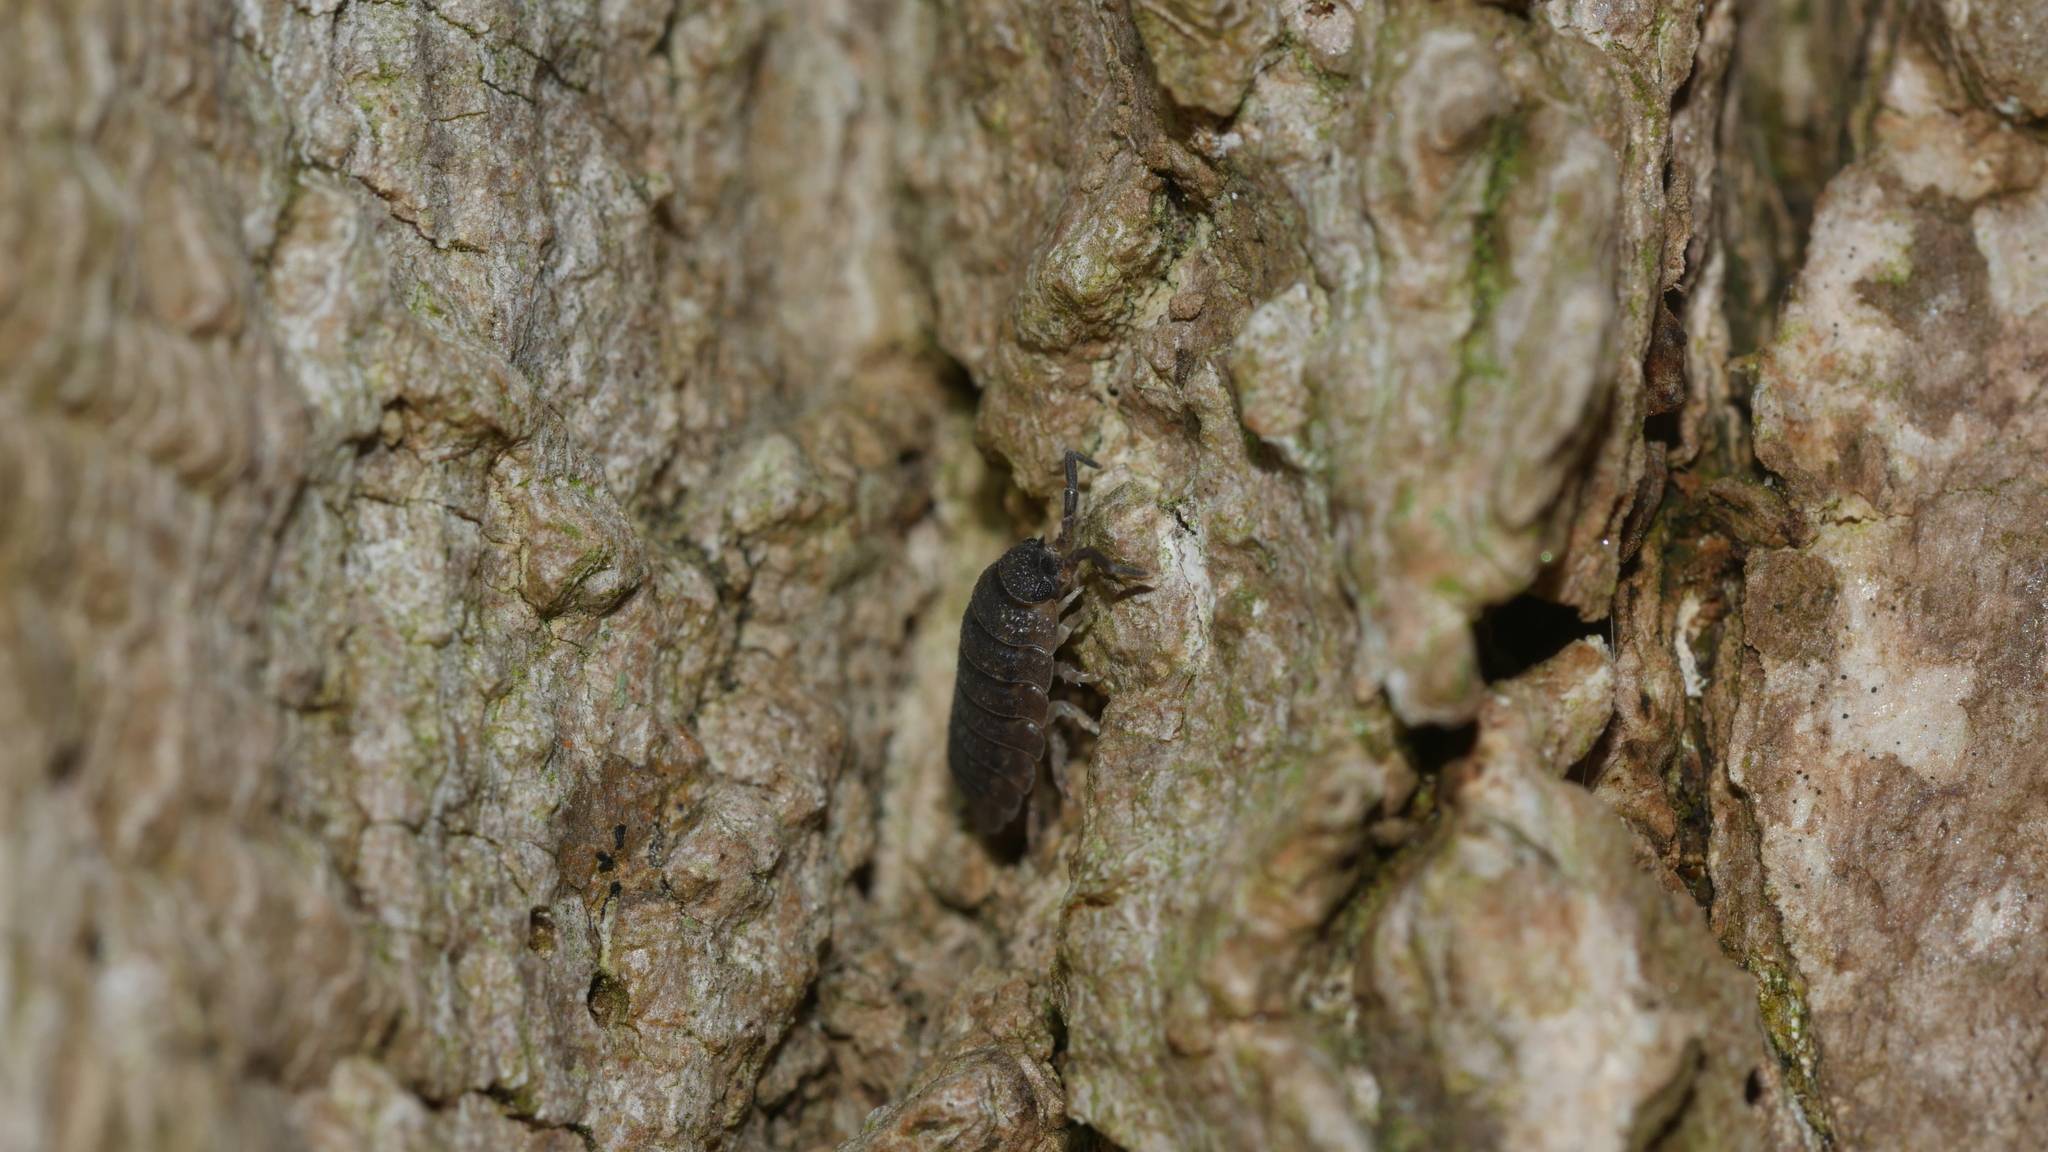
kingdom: Animalia
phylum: Arthropoda
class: Malacostraca
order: Isopoda
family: Porcellionidae
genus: Porcellio
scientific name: Porcellio scaber
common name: Common rough woodlouse
